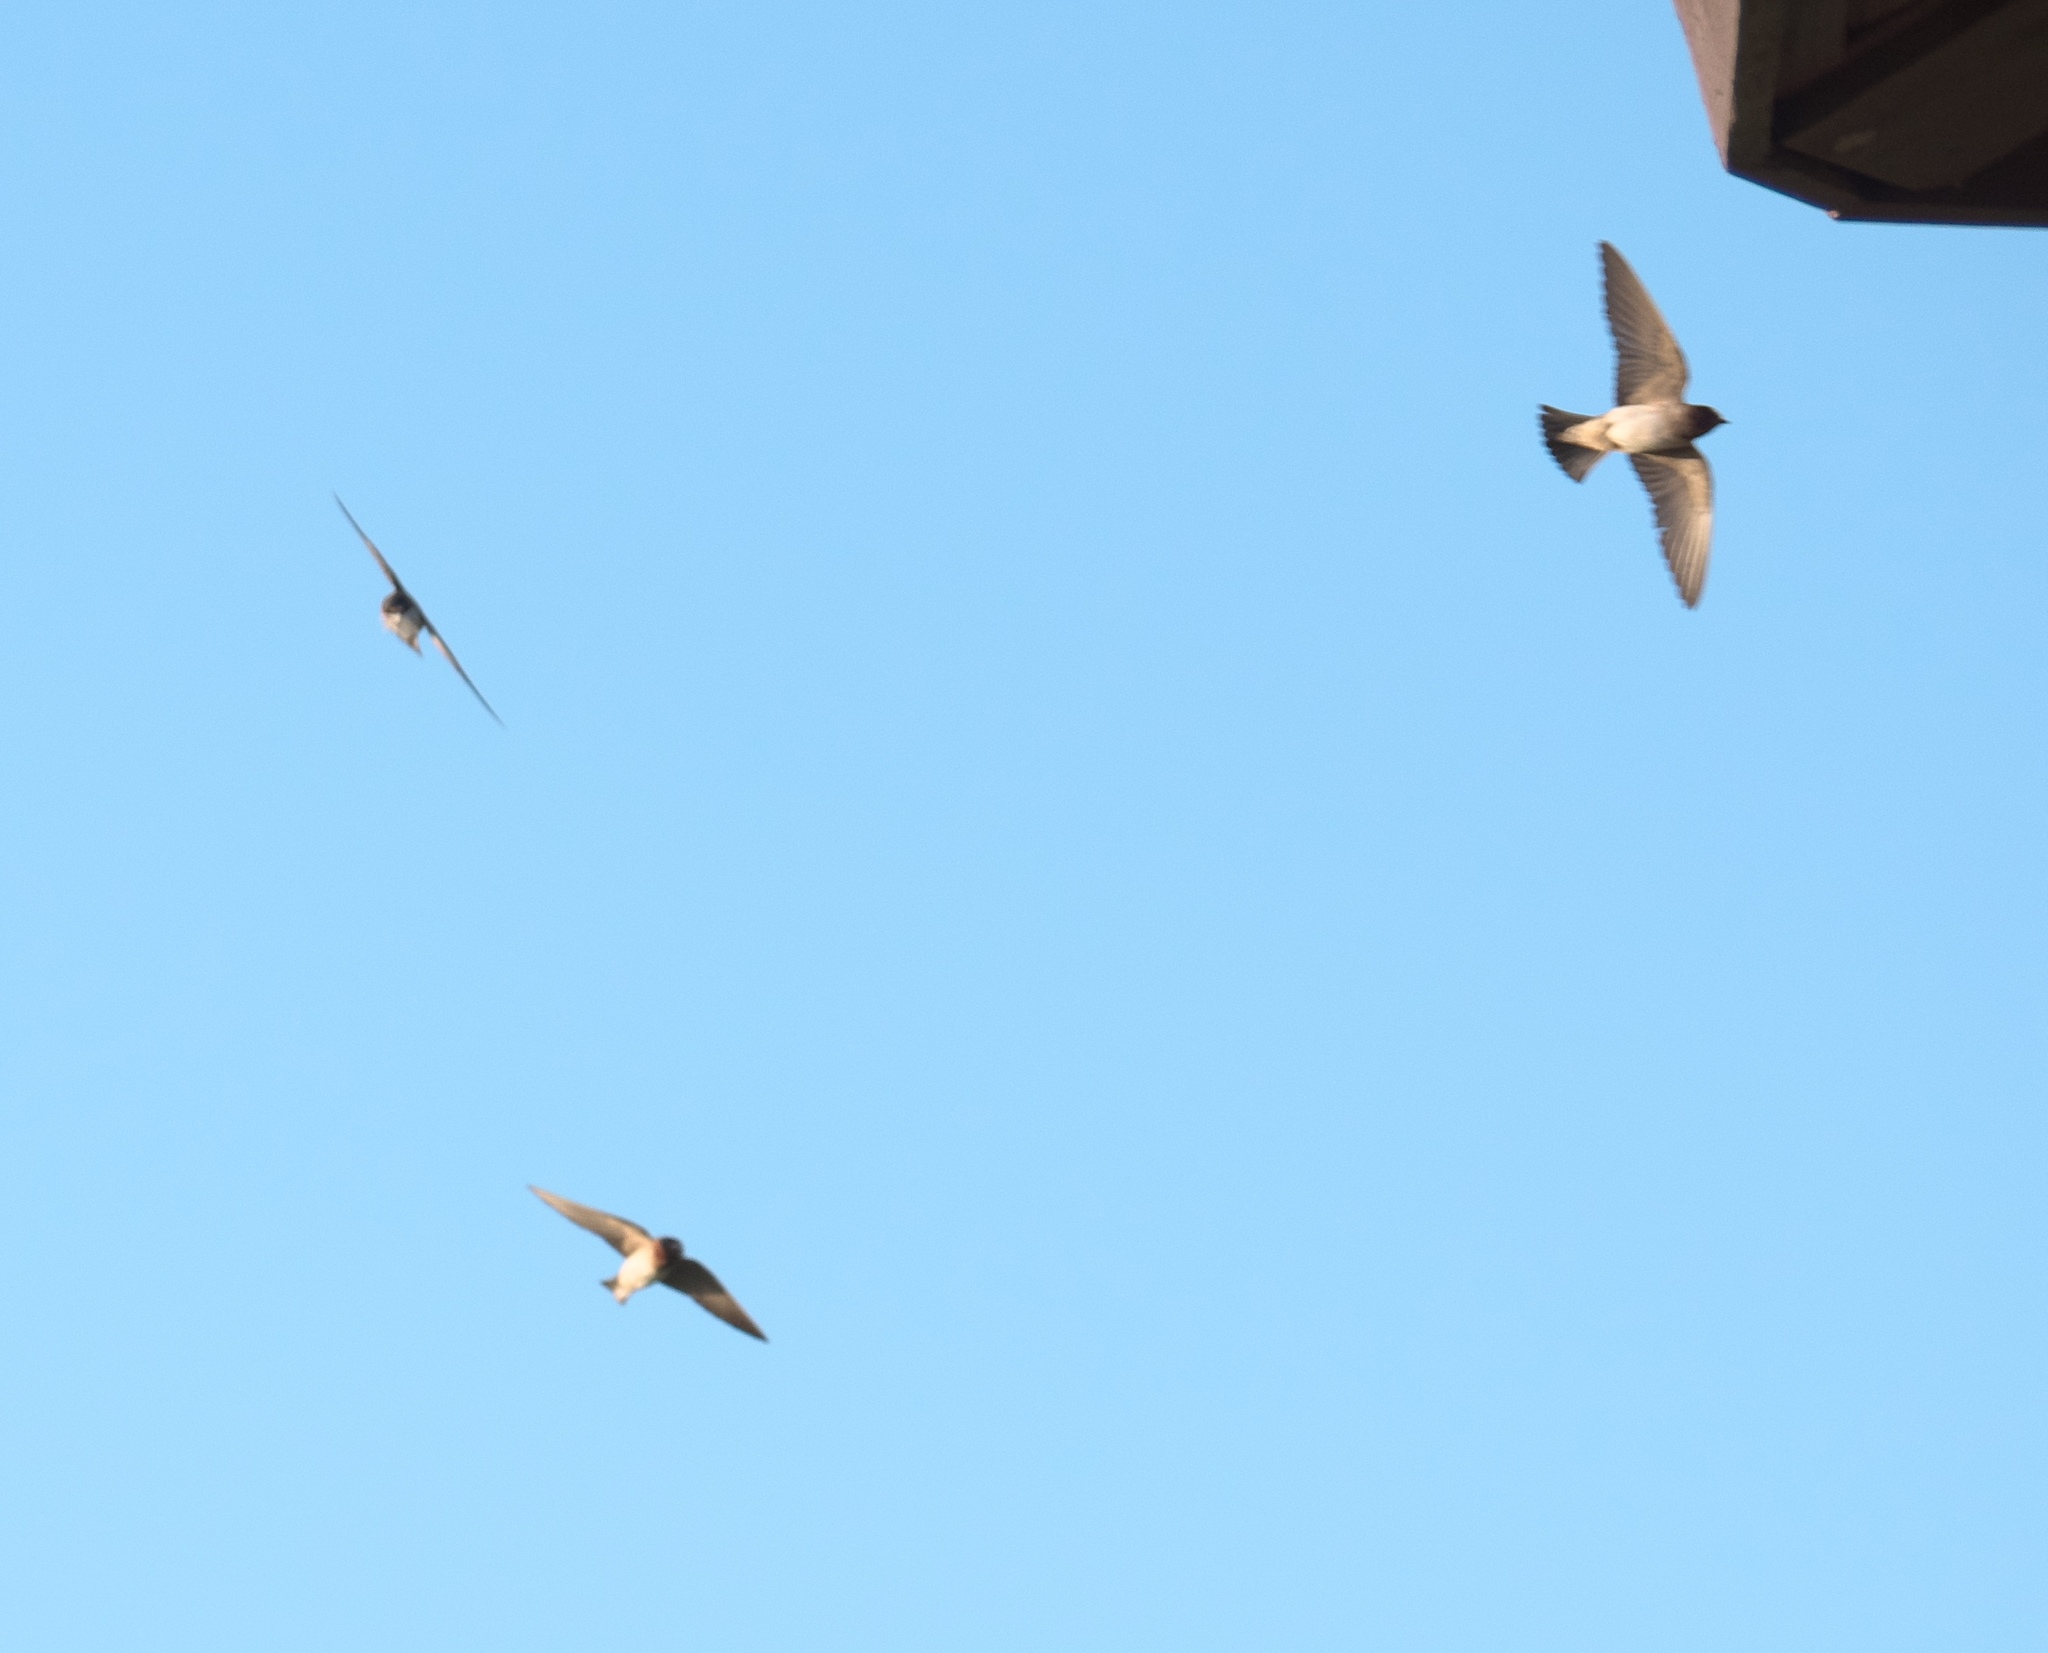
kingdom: Animalia
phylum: Chordata
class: Aves
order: Passeriformes
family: Hirundinidae
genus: Petrochelidon
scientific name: Petrochelidon pyrrhonota
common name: American cliff swallow
